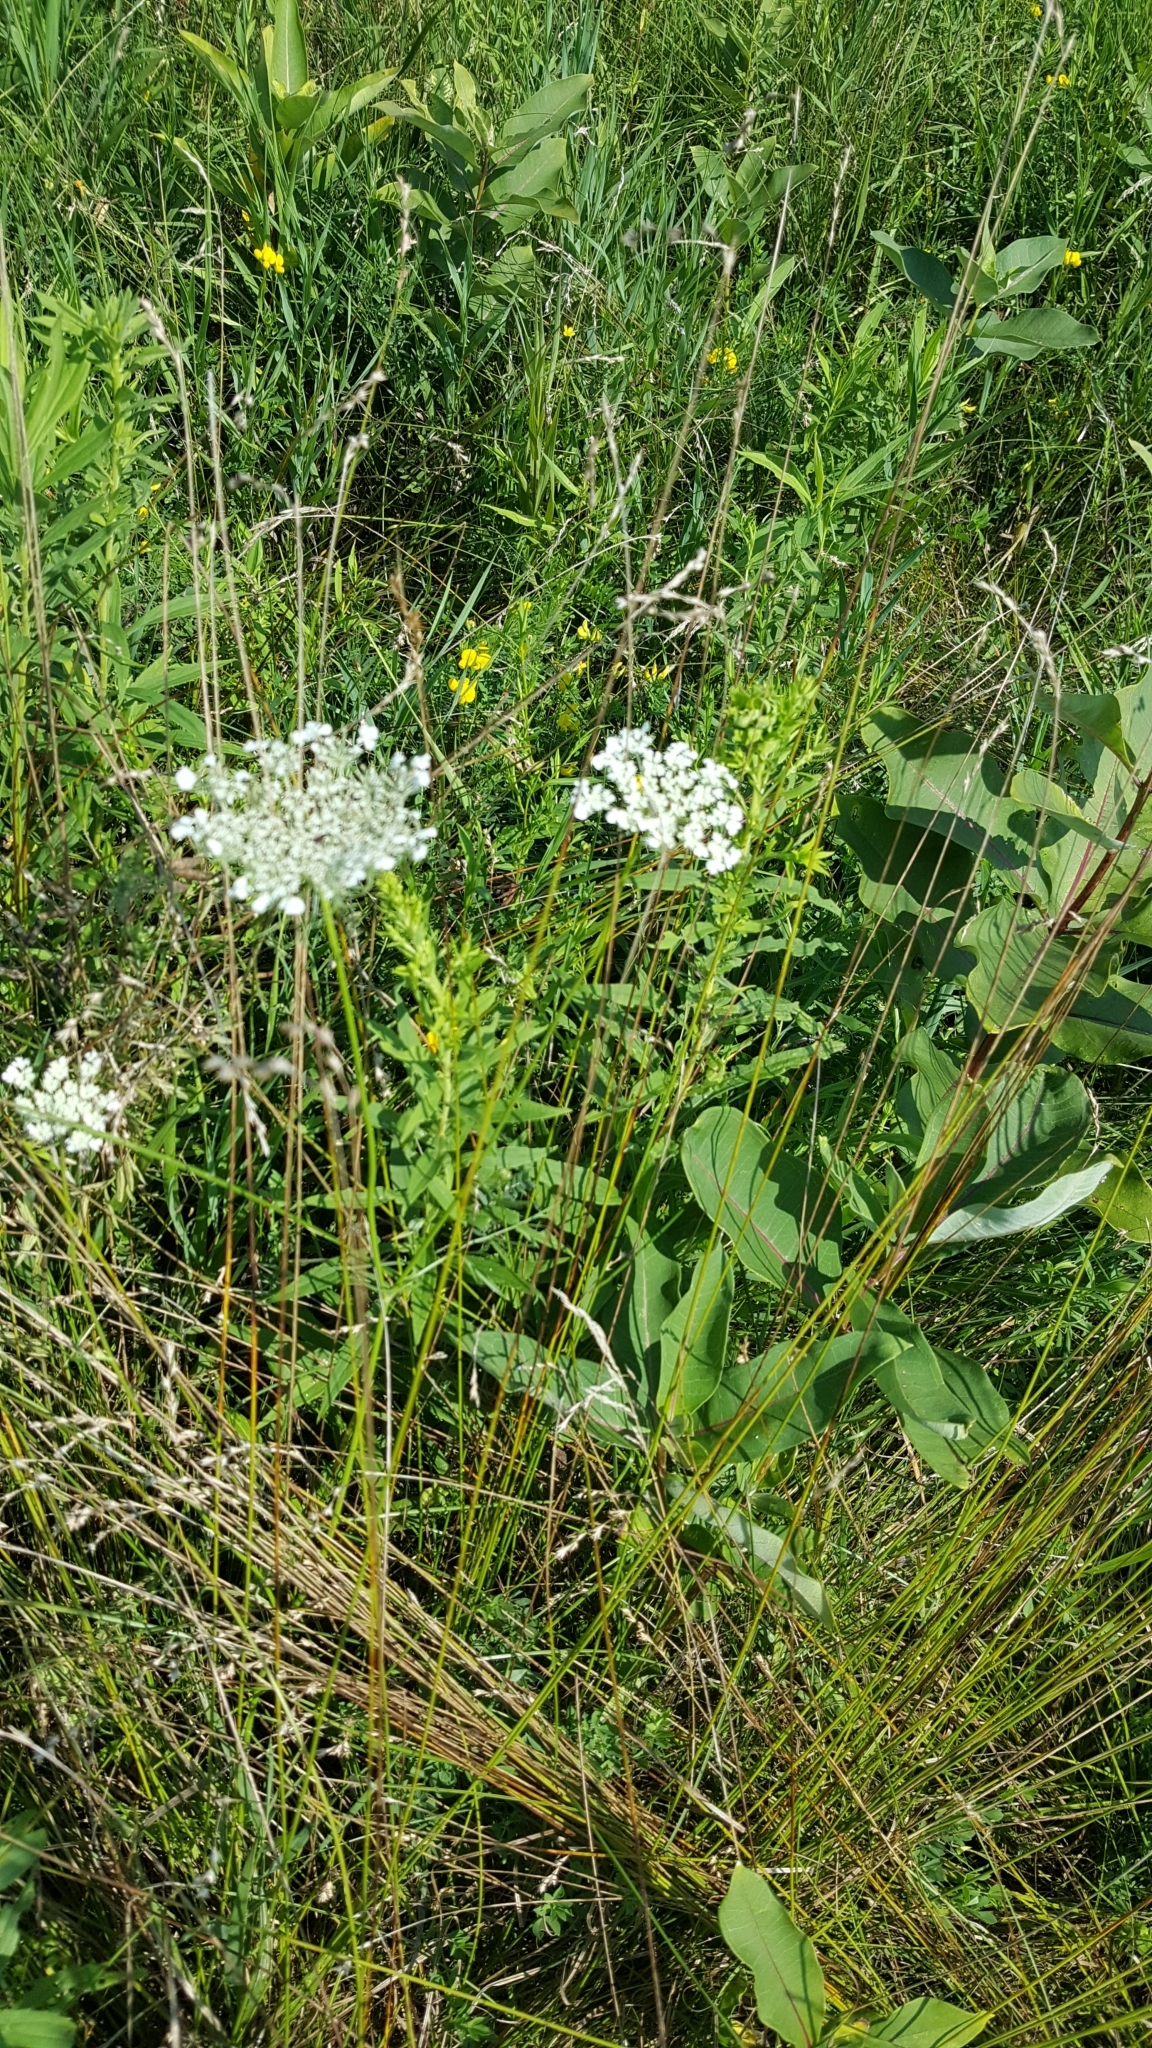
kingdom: Plantae
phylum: Tracheophyta
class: Magnoliopsida
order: Apiales
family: Apiaceae
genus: Daucus
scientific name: Daucus carota
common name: Wild carrot
